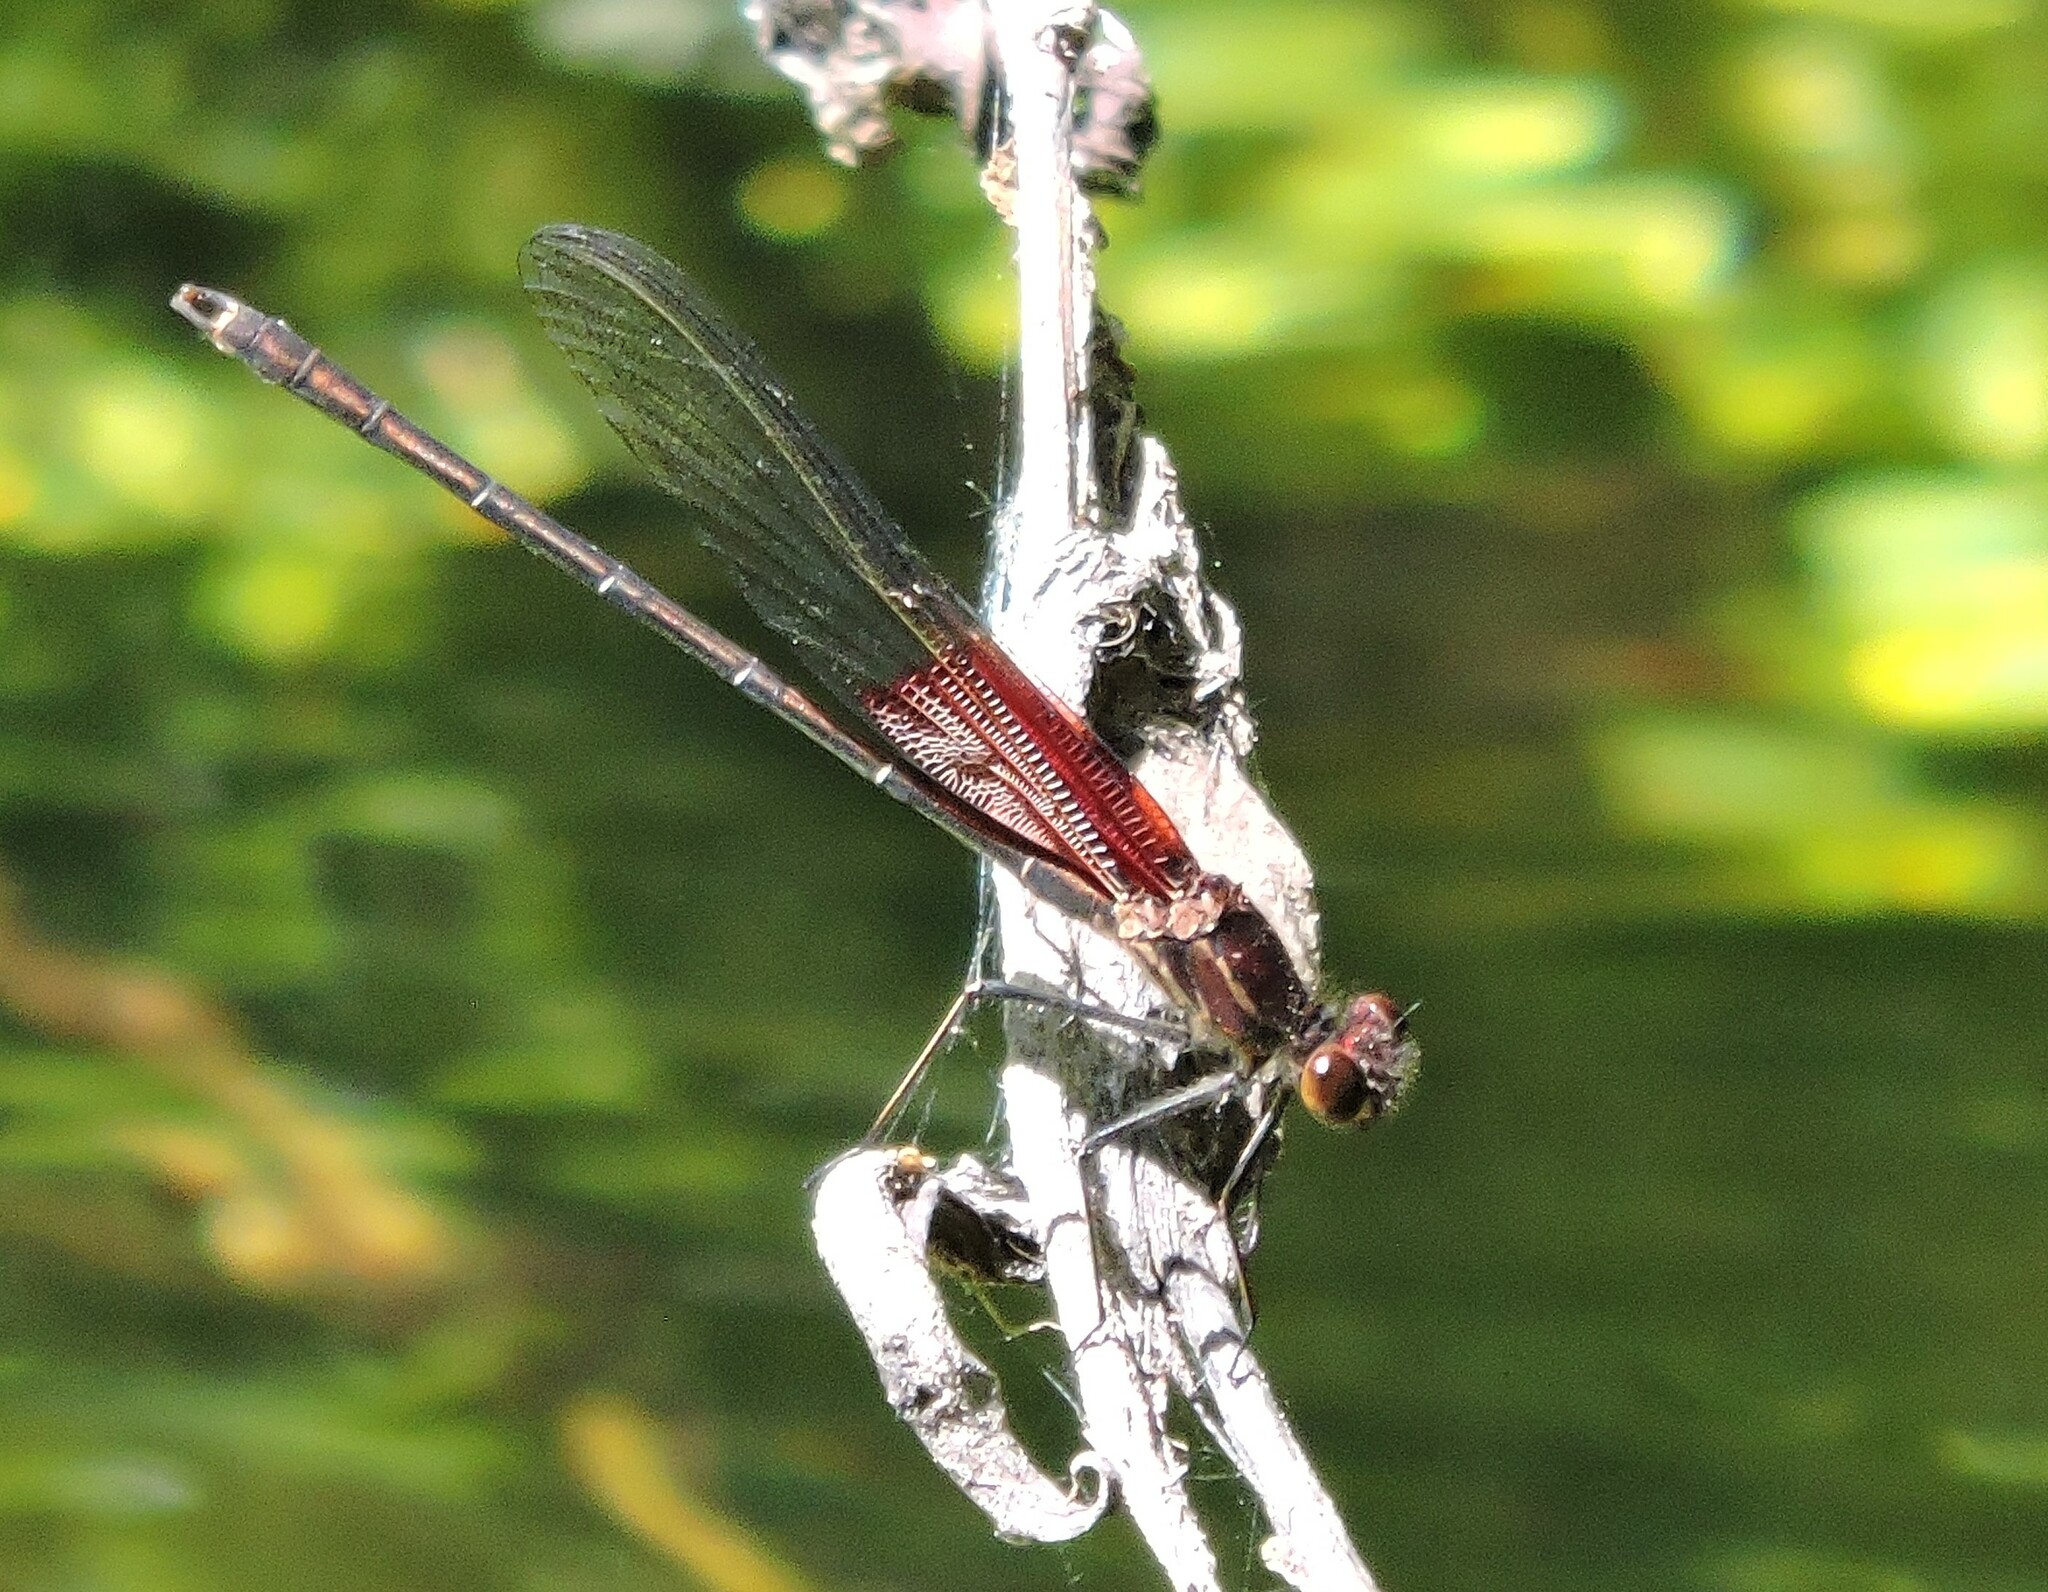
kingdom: Animalia
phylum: Arthropoda
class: Insecta
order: Odonata
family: Calopterygidae
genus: Hetaerina
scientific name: Hetaerina americana
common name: American rubyspot
